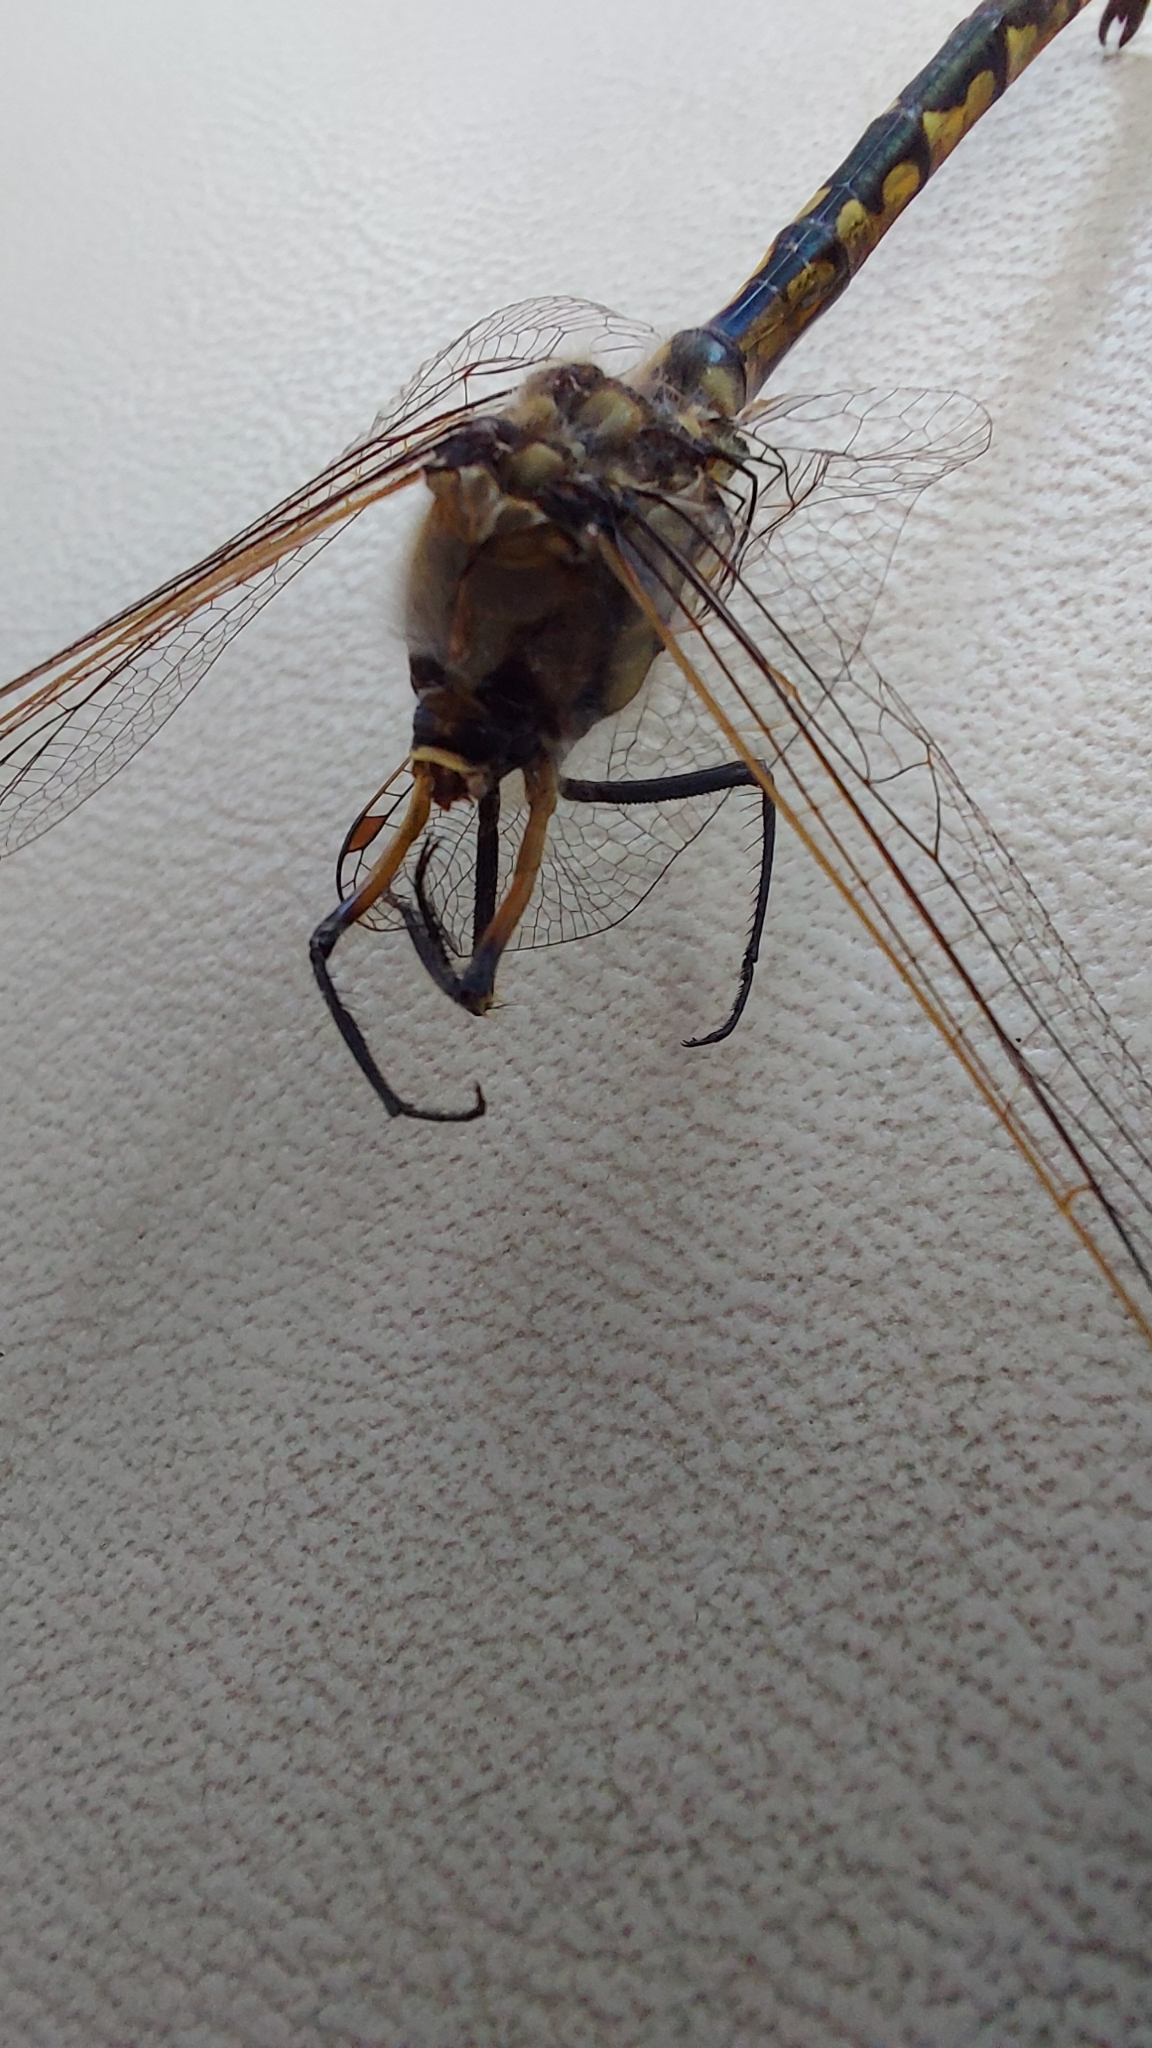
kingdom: Animalia
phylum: Arthropoda
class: Insecta
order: Odonata
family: Corduliidae
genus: Hemicordulia
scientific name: Hemicordulia tau
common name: Tau emerald
